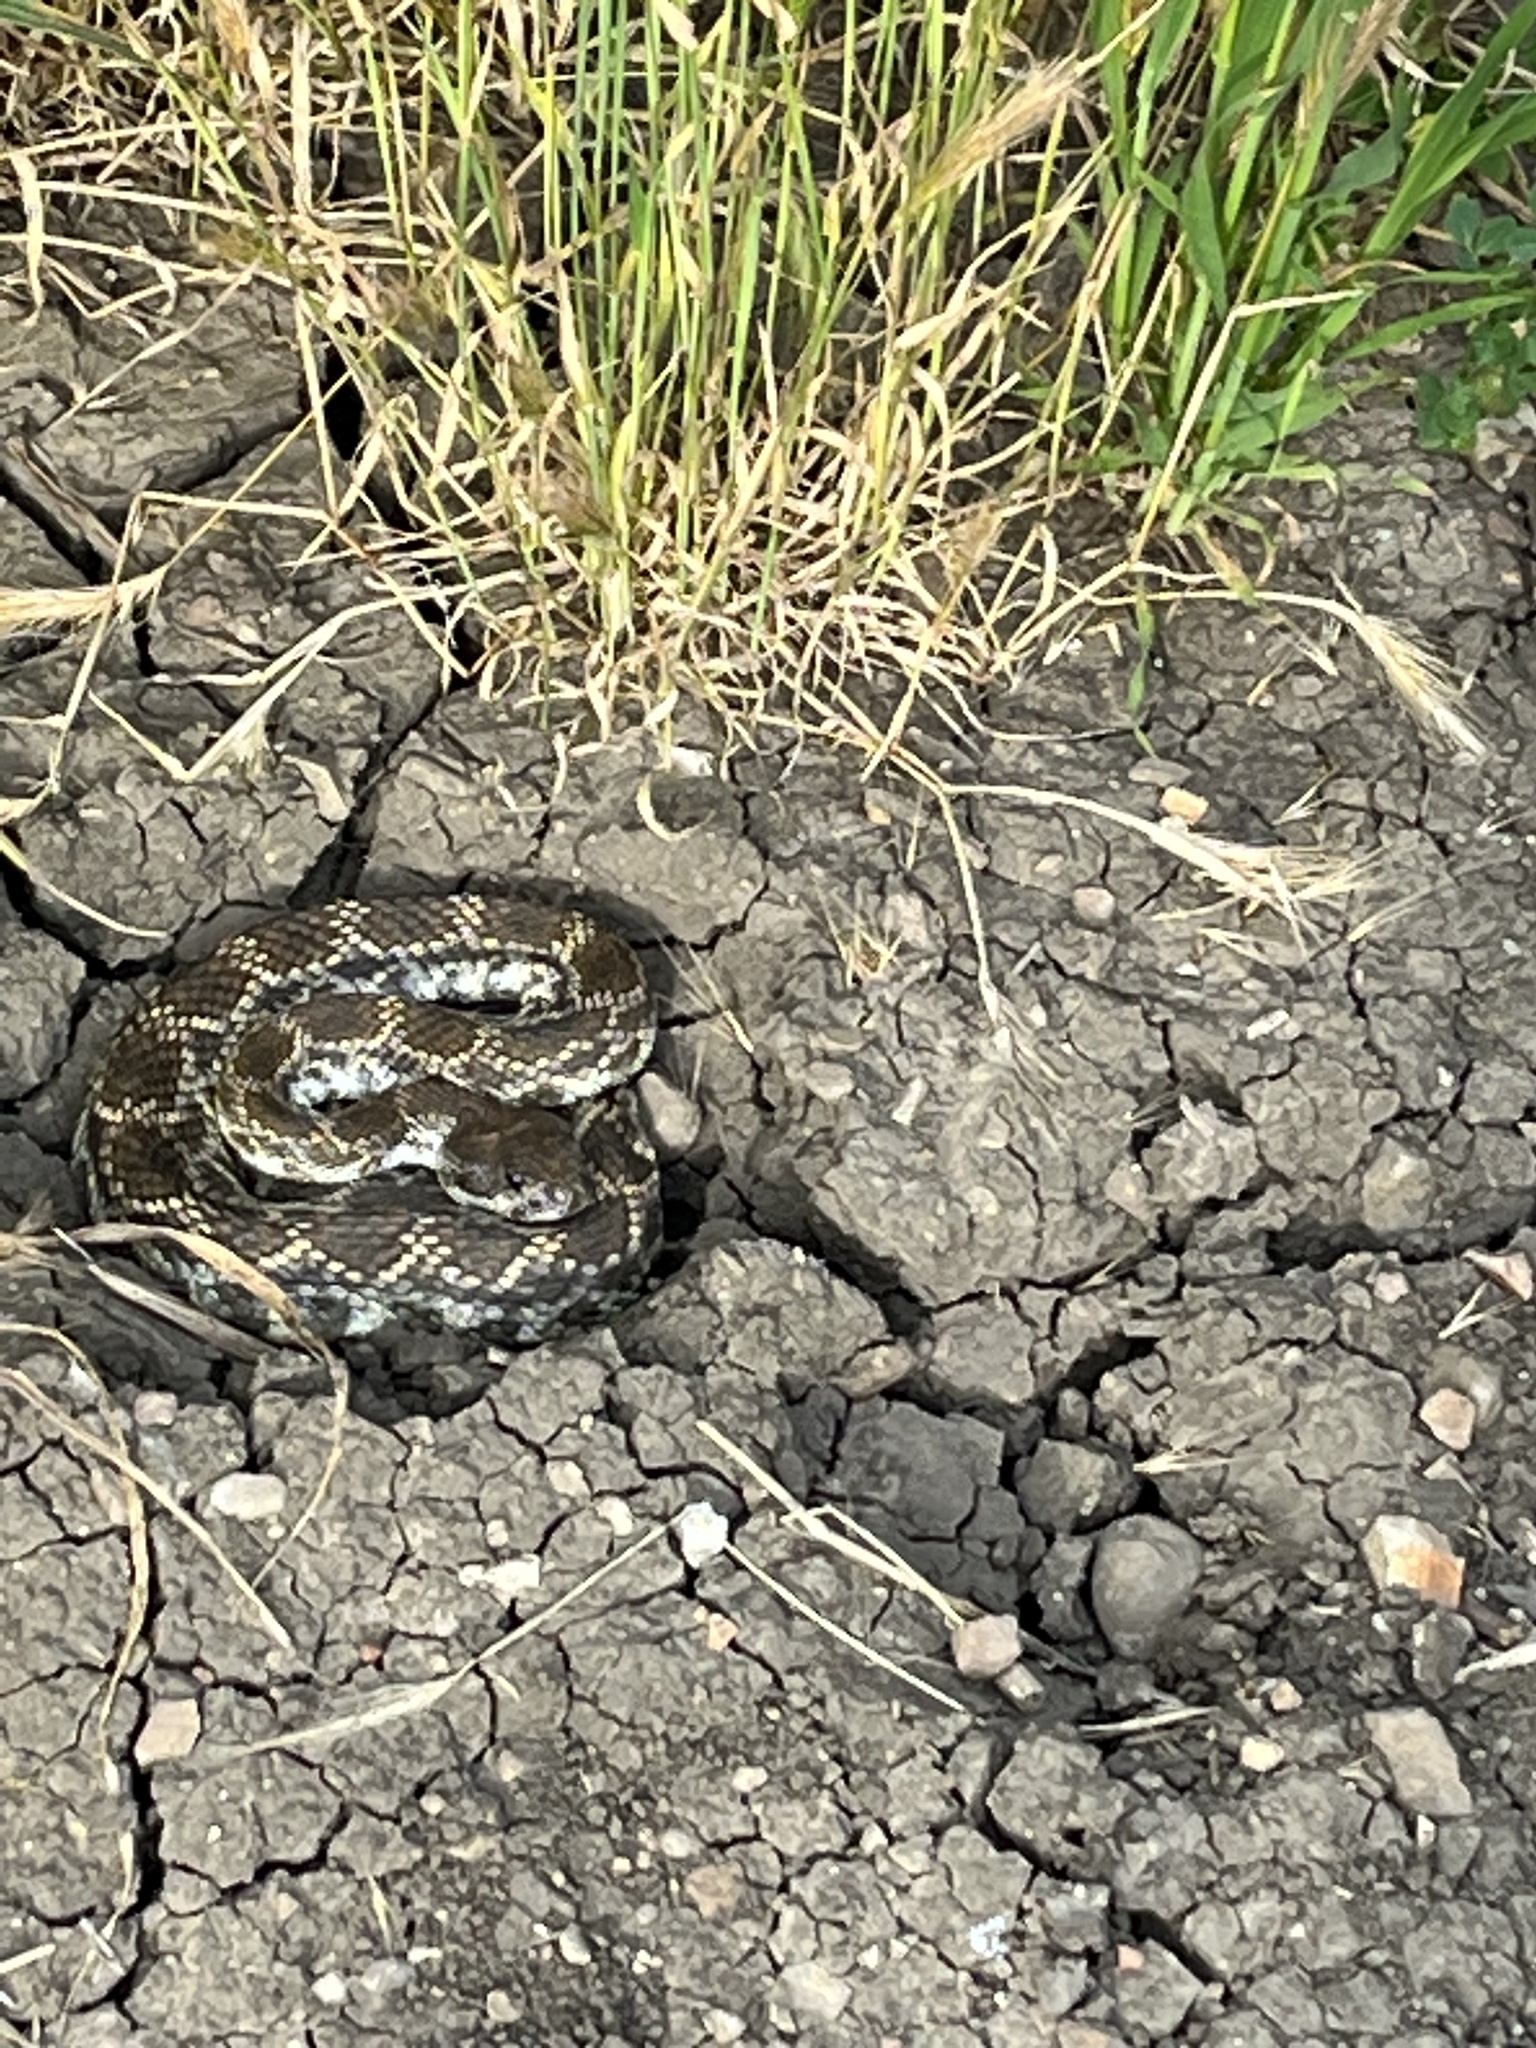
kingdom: Animalia
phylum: Chordata
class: Squamata
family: Viperidae
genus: Crotalus
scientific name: Crotalus oreganus
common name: Abyssus
